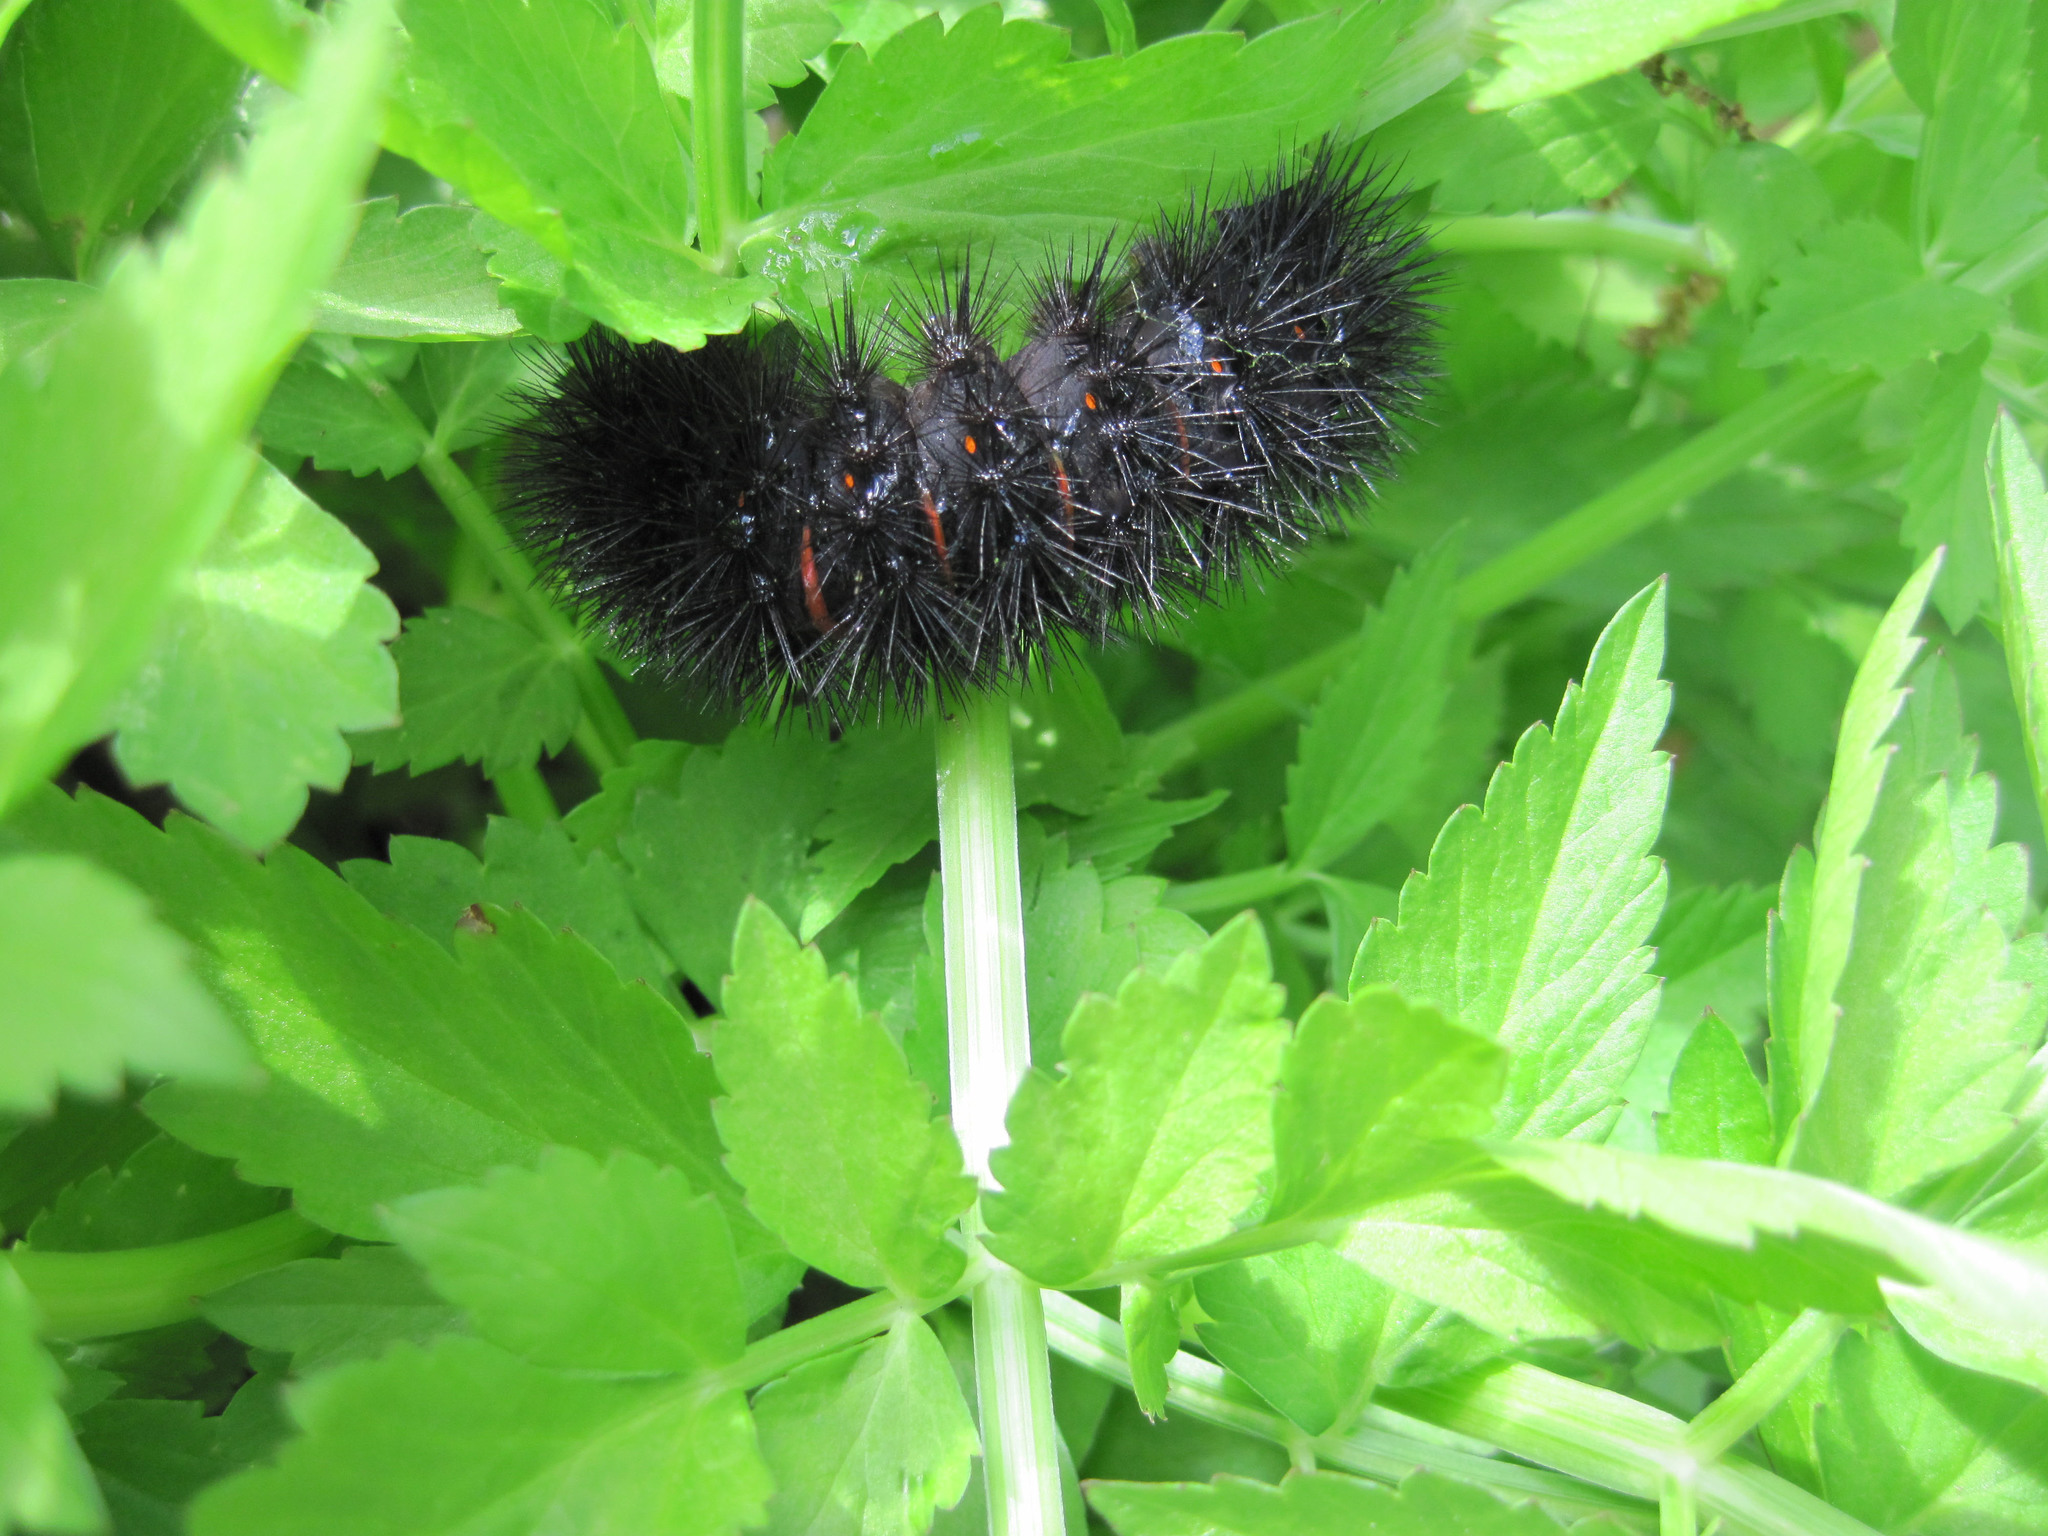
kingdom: Animalia
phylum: Arthropoda
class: Insecta
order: Lepidoptera
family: Erebidae
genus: Hypercompe
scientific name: Hypercompe scribonia
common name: Giant leopard moth
